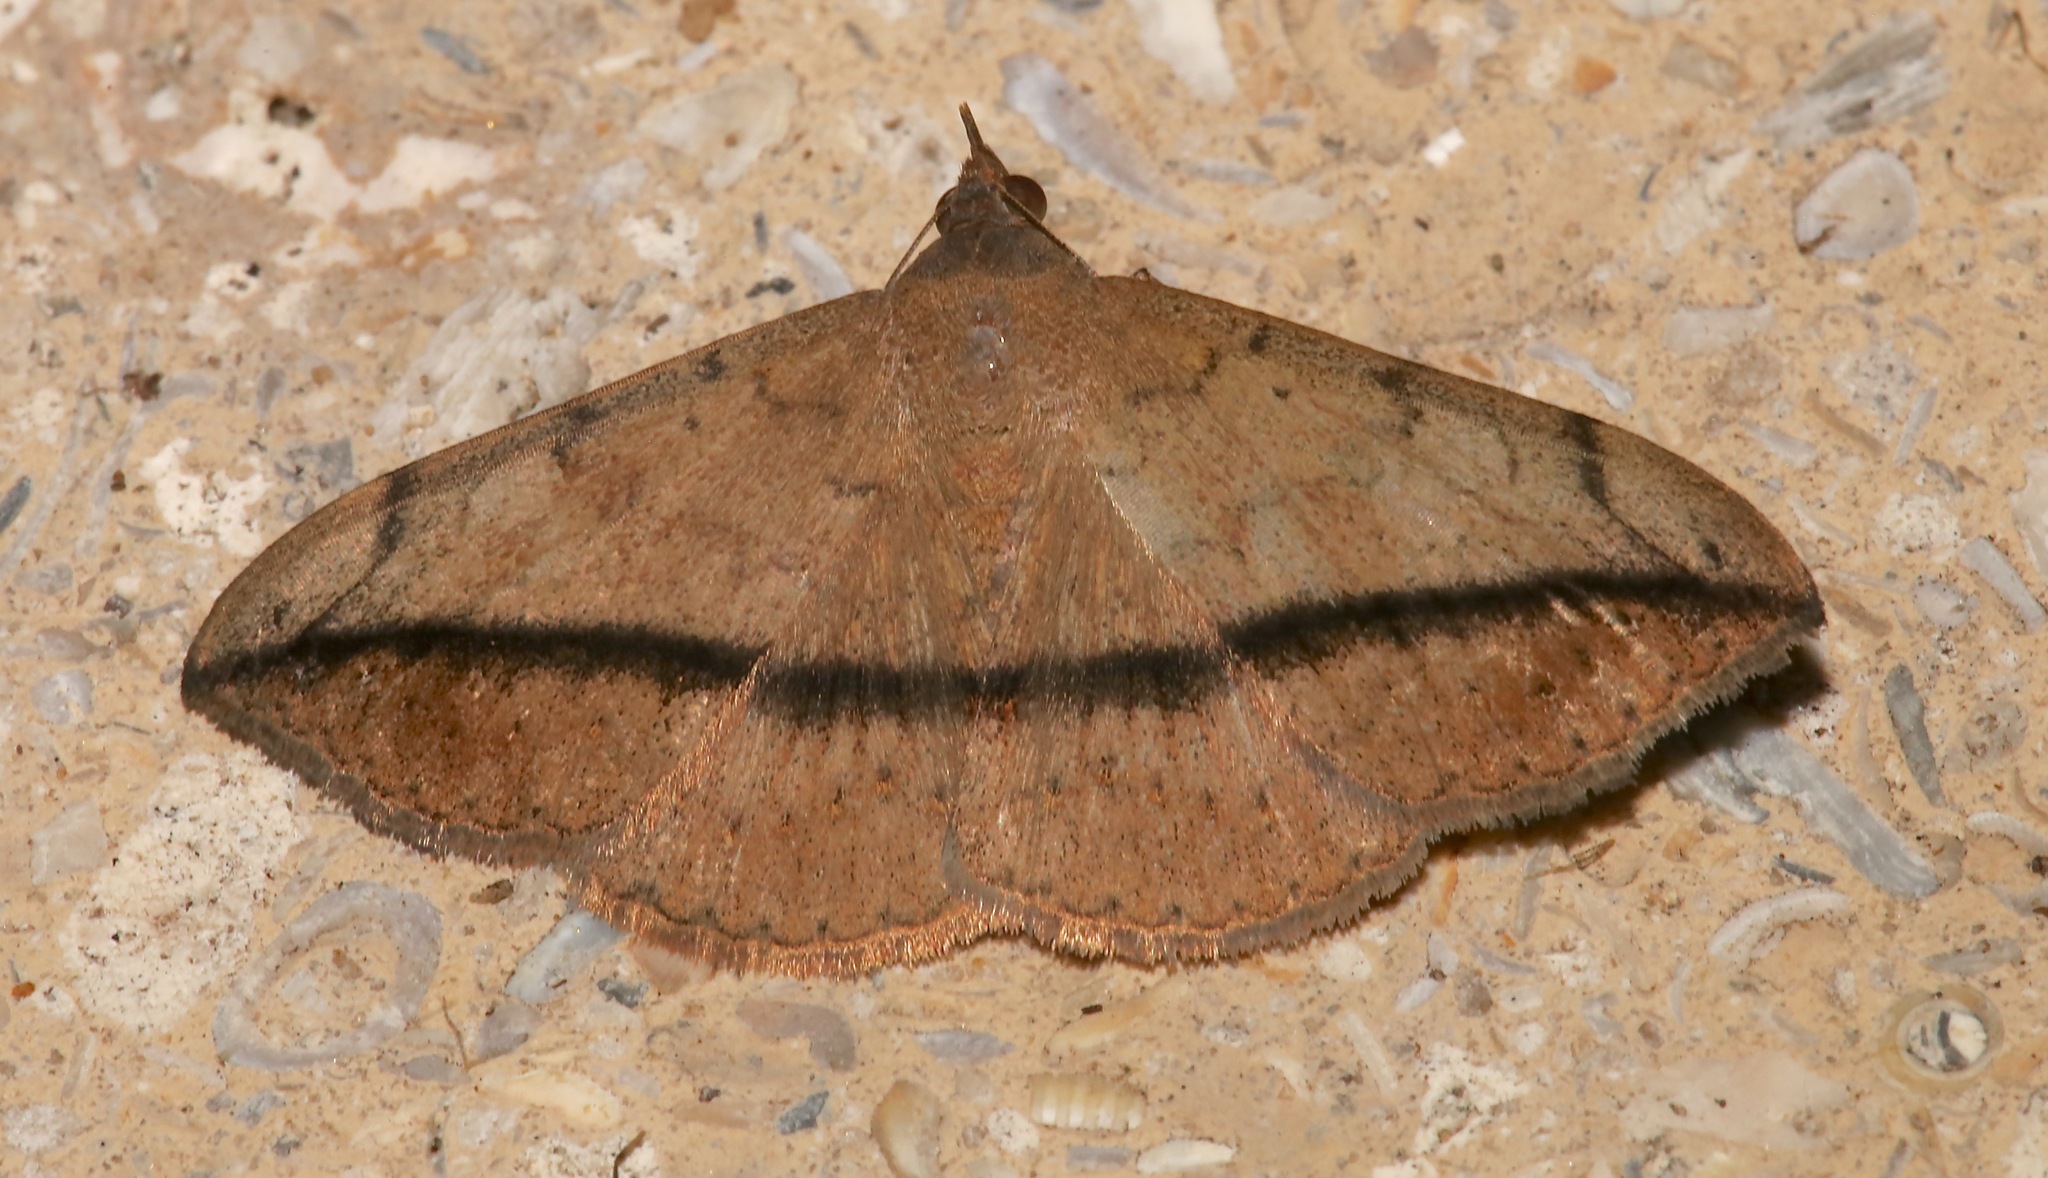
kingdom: Animalia
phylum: Arthropoda
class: Insecta
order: Lepidoptera
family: Erebidae
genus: Anticarsia
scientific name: Anticarsia gemmatalis
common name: Cutworm moth
